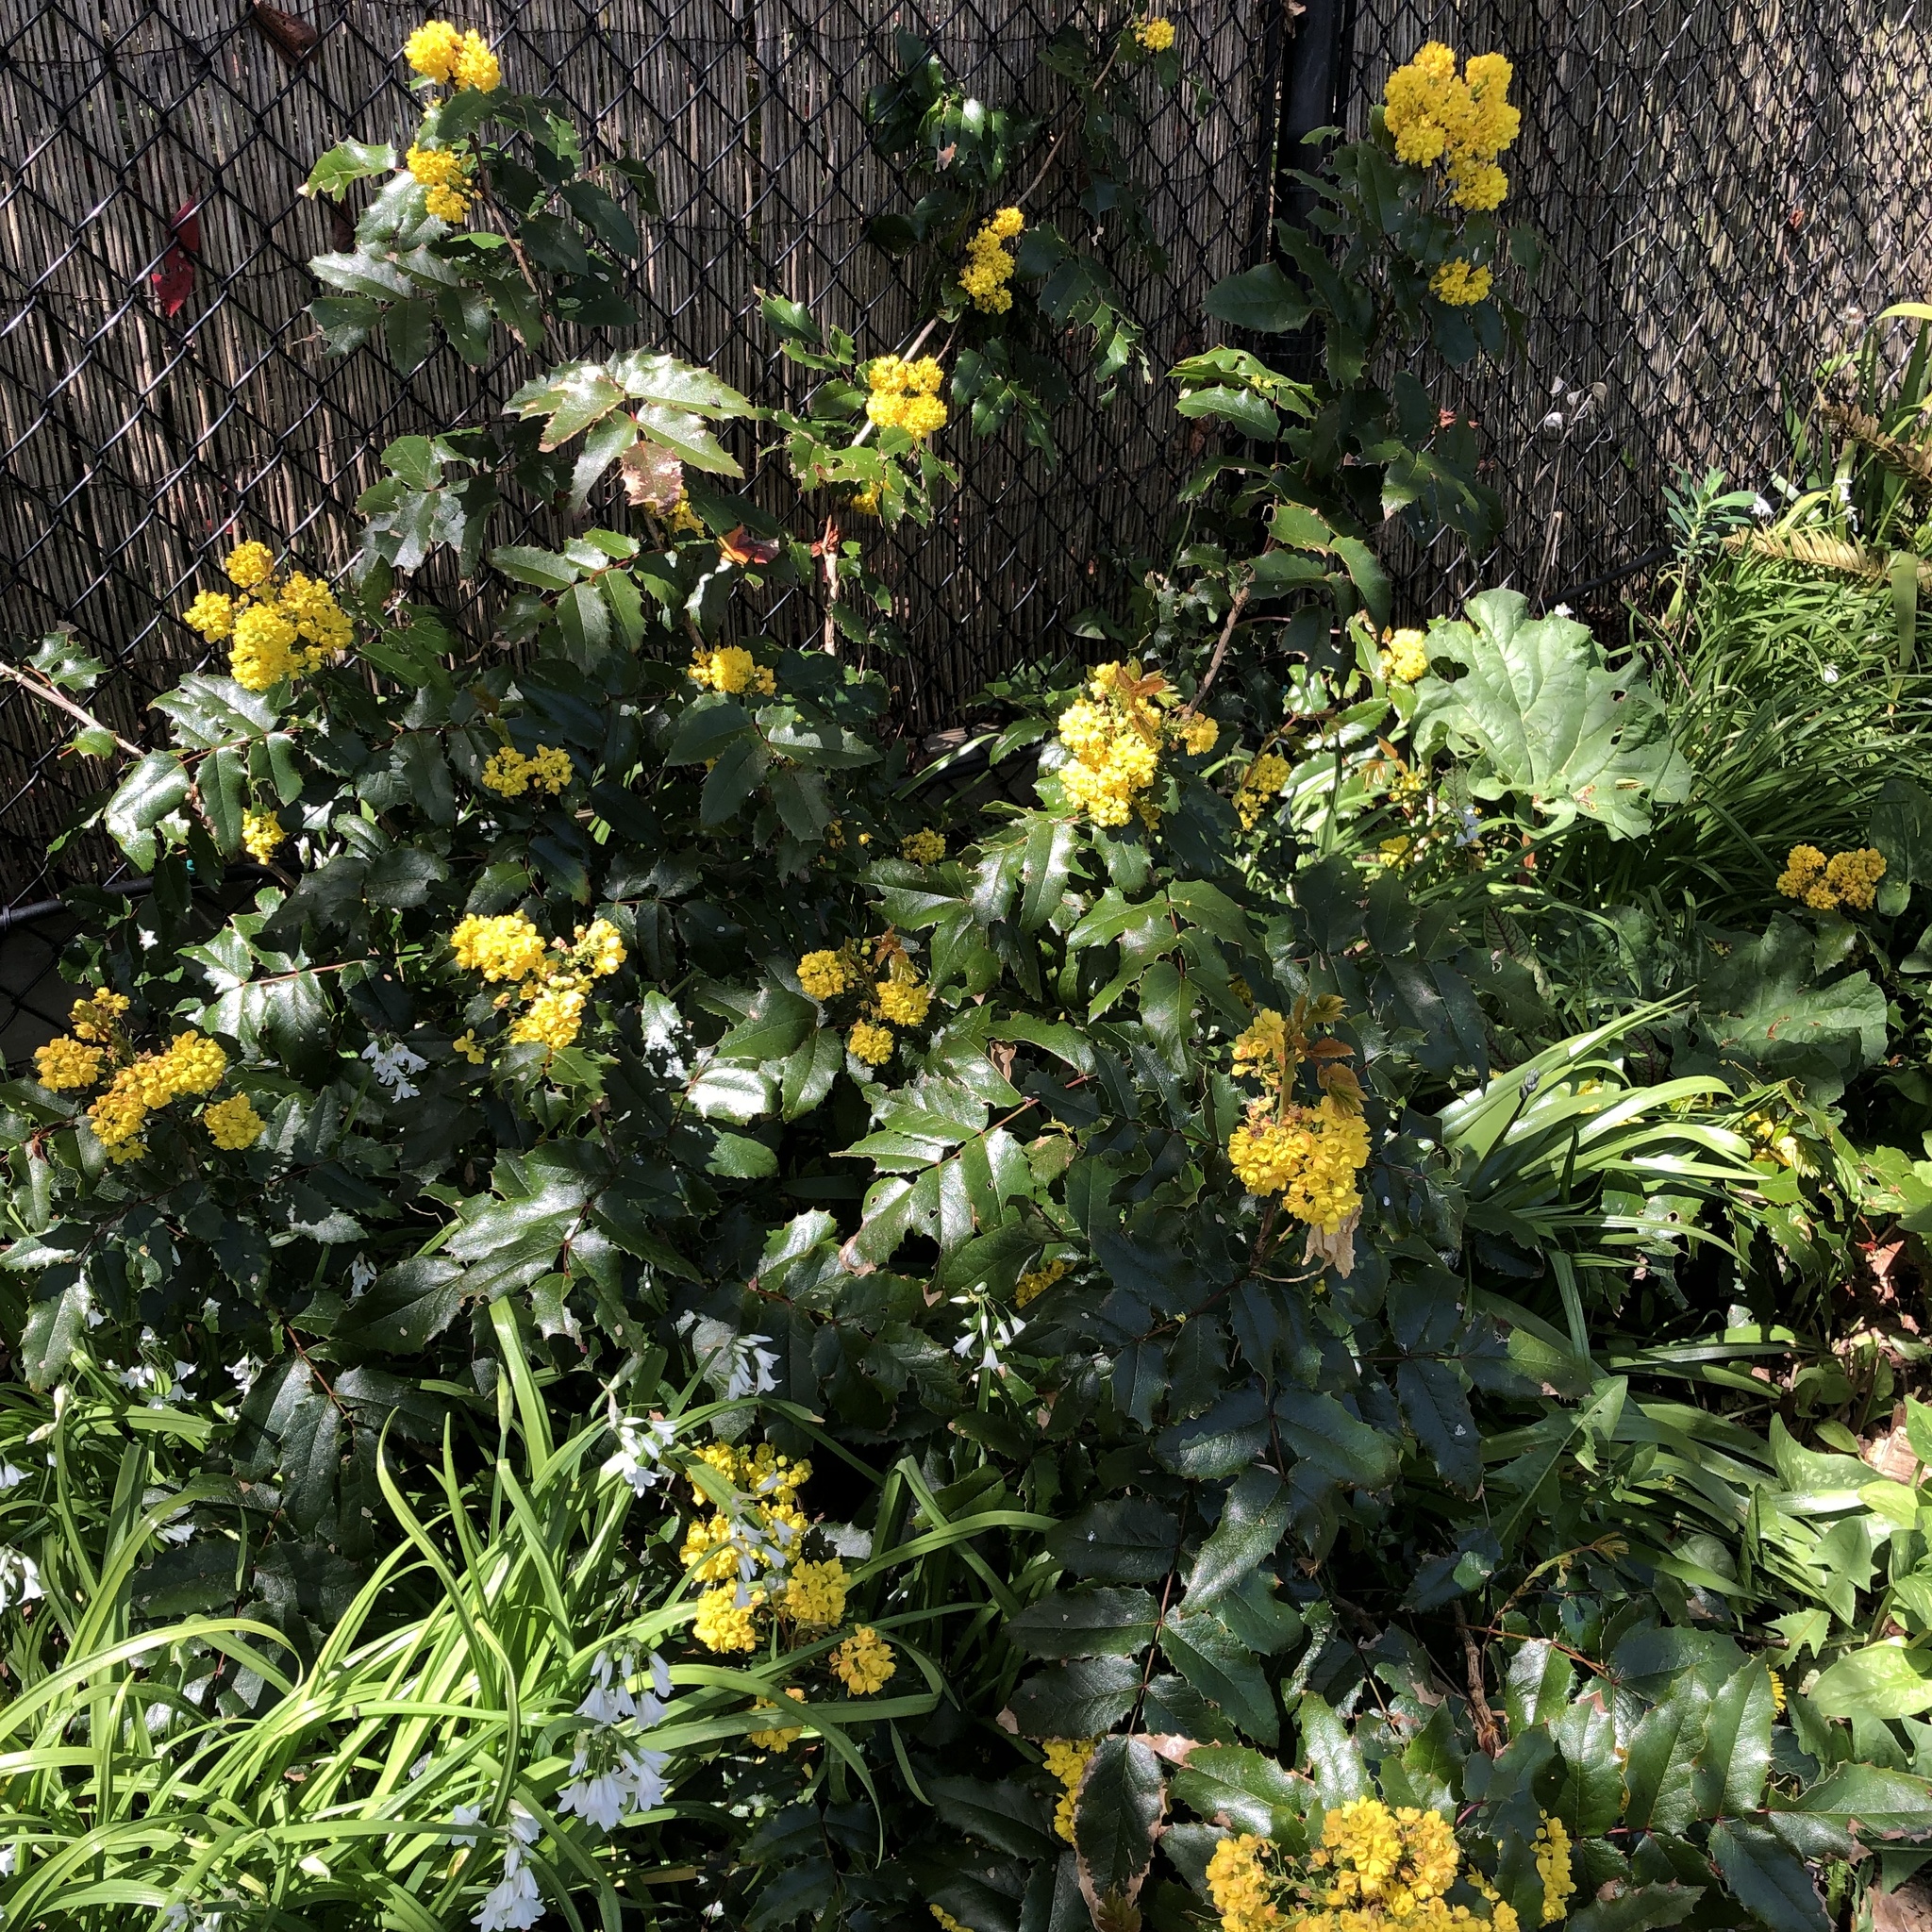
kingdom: Plantae
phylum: Tracheophyta
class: Magnoliopsida
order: Ranunculales
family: Berberidaceae
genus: Mahonia
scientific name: Mahonia aquifolium
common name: Oregon-grape
